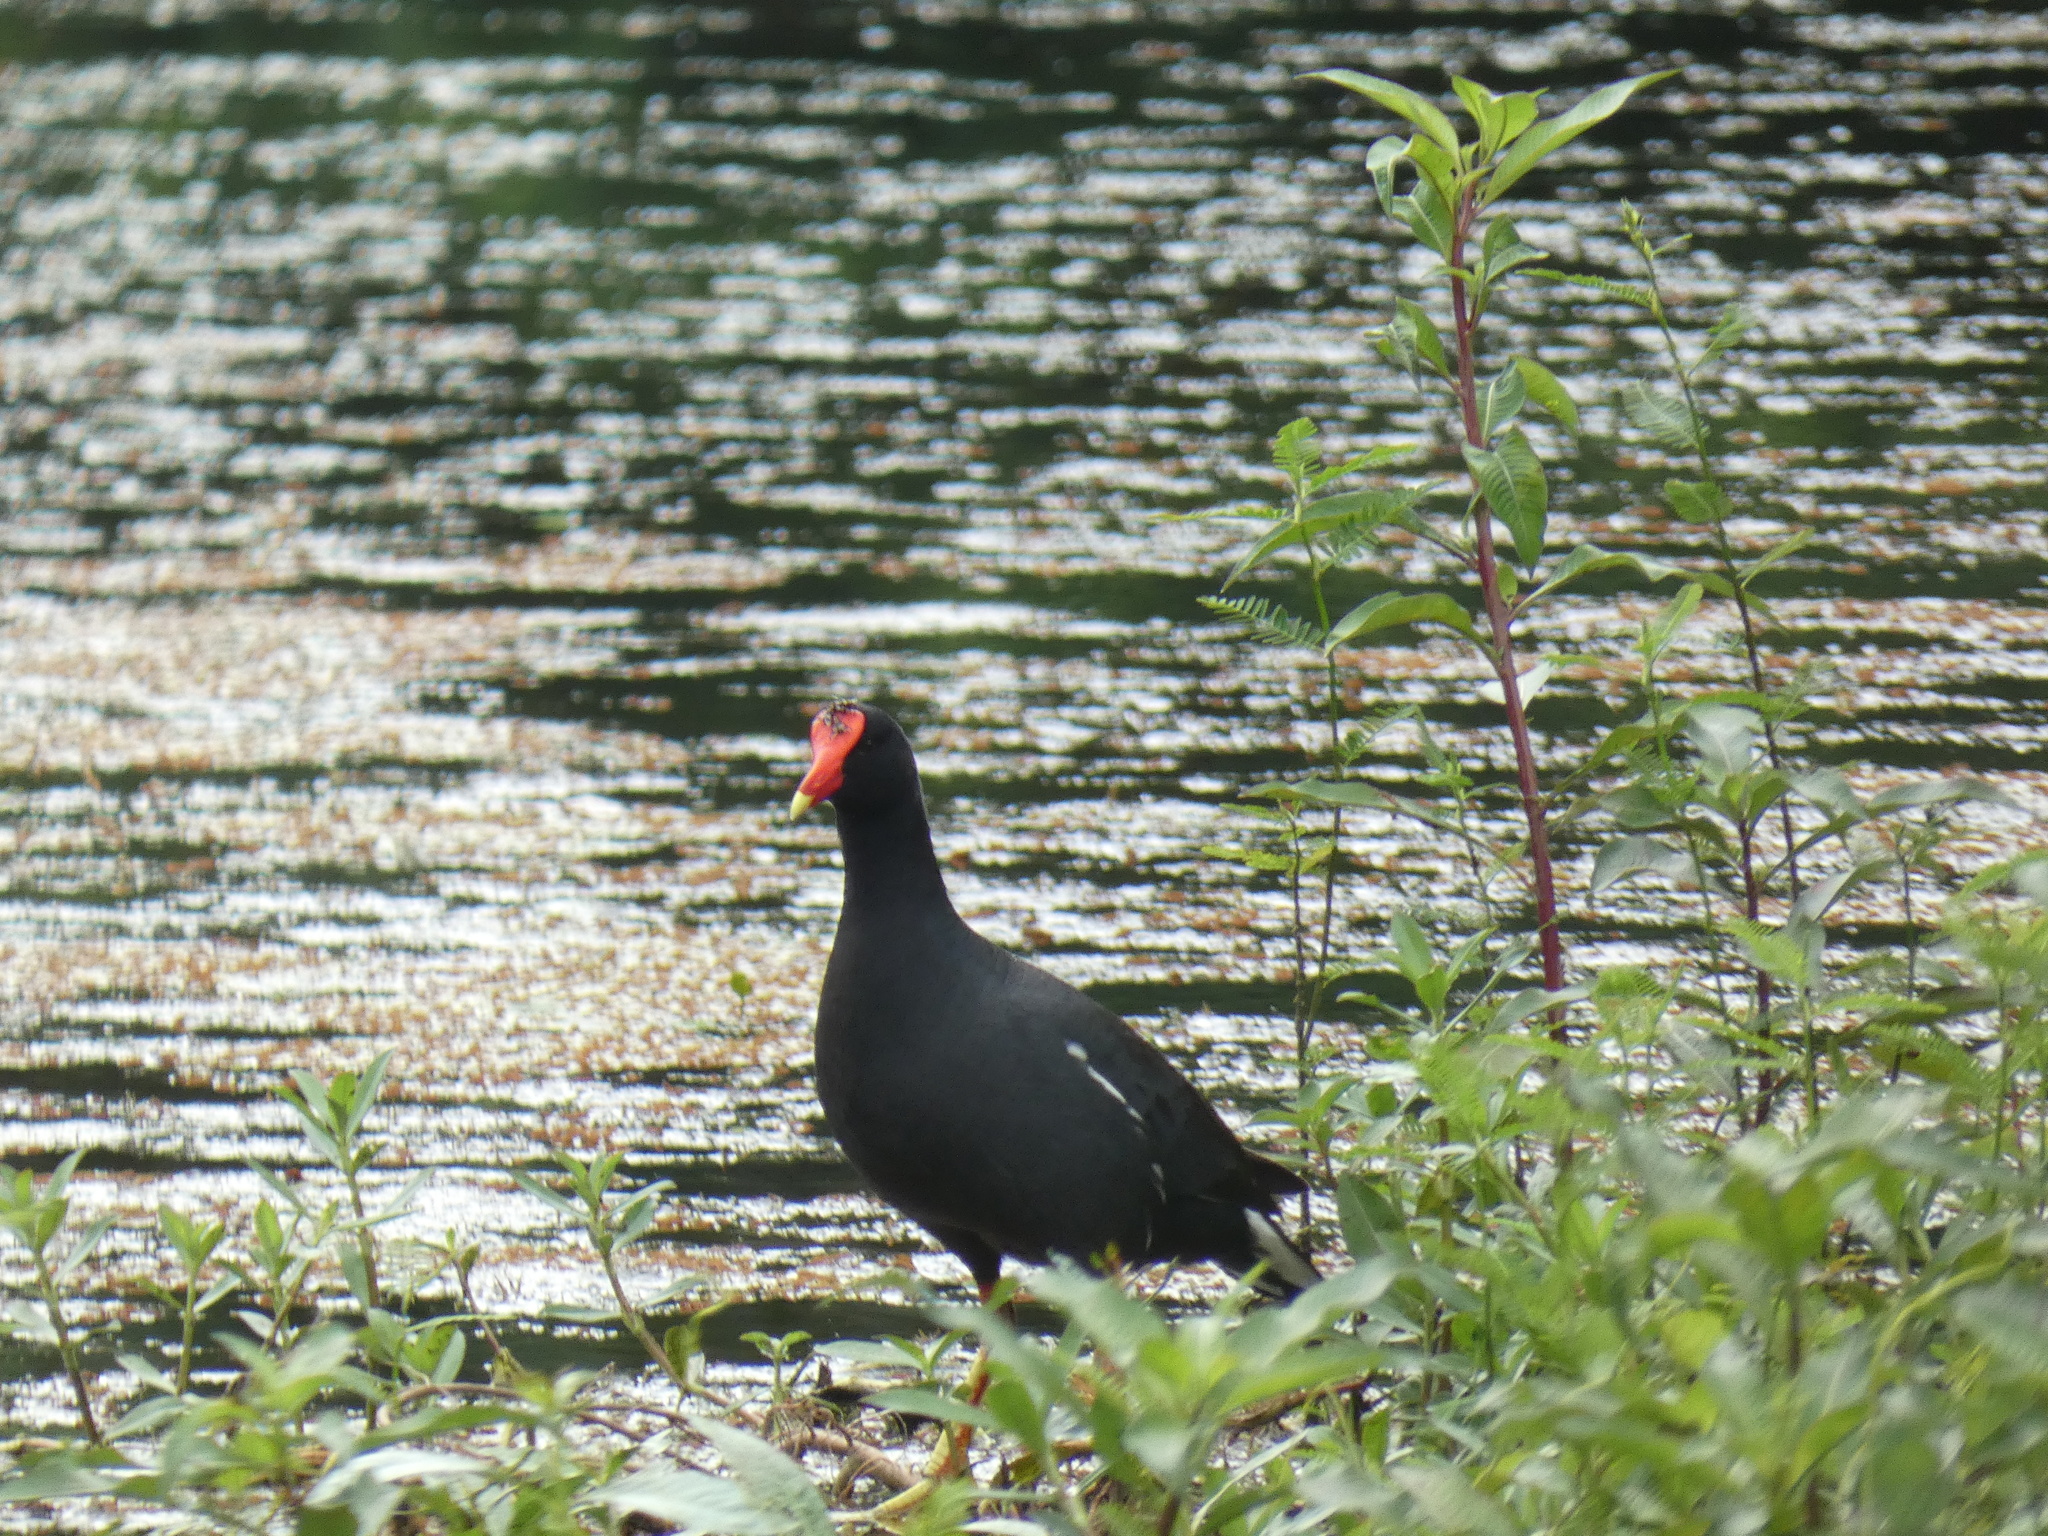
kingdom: Animalia
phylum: Chordata
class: Aves
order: Gruiformes
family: Rallidae
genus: Gallinula
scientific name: Gallinula chloropus
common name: Common moorhen
